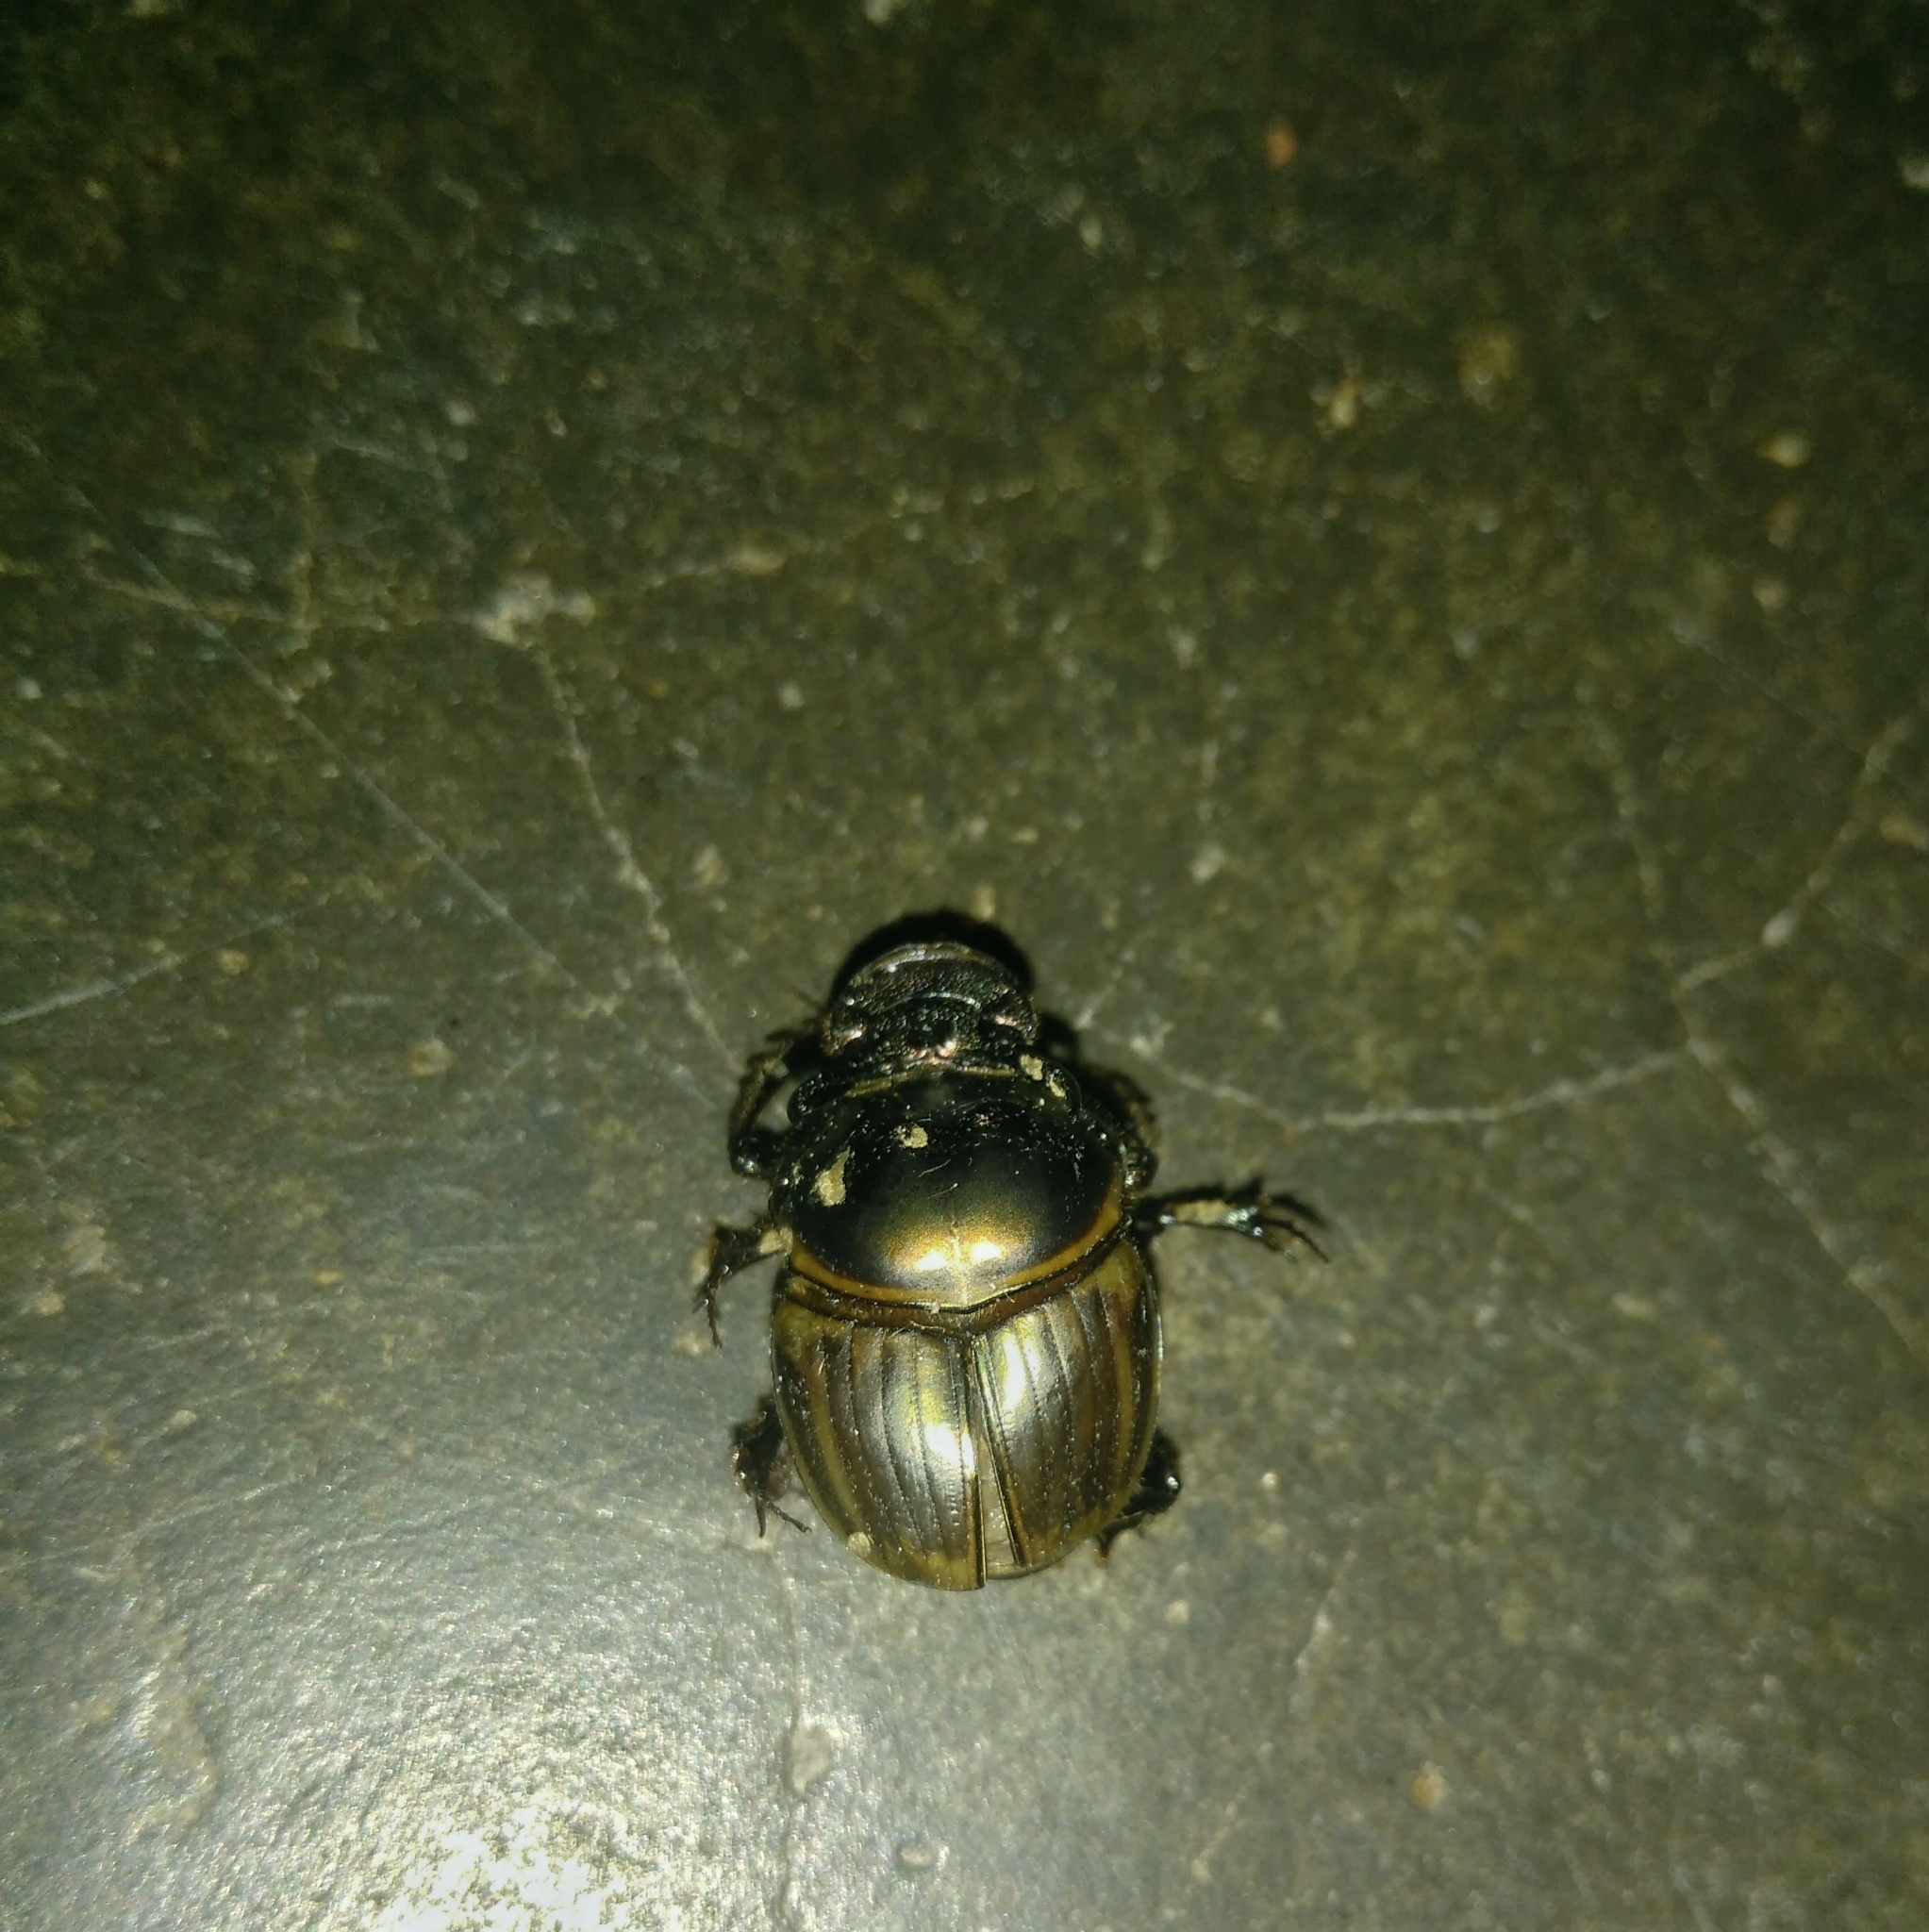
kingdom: Animalia
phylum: Arthropoda
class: Insecta
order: Coleoptera
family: Scarabaeidae
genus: Digitonthophagus
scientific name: Digitonthophagus gazella
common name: Brown dung beetle
